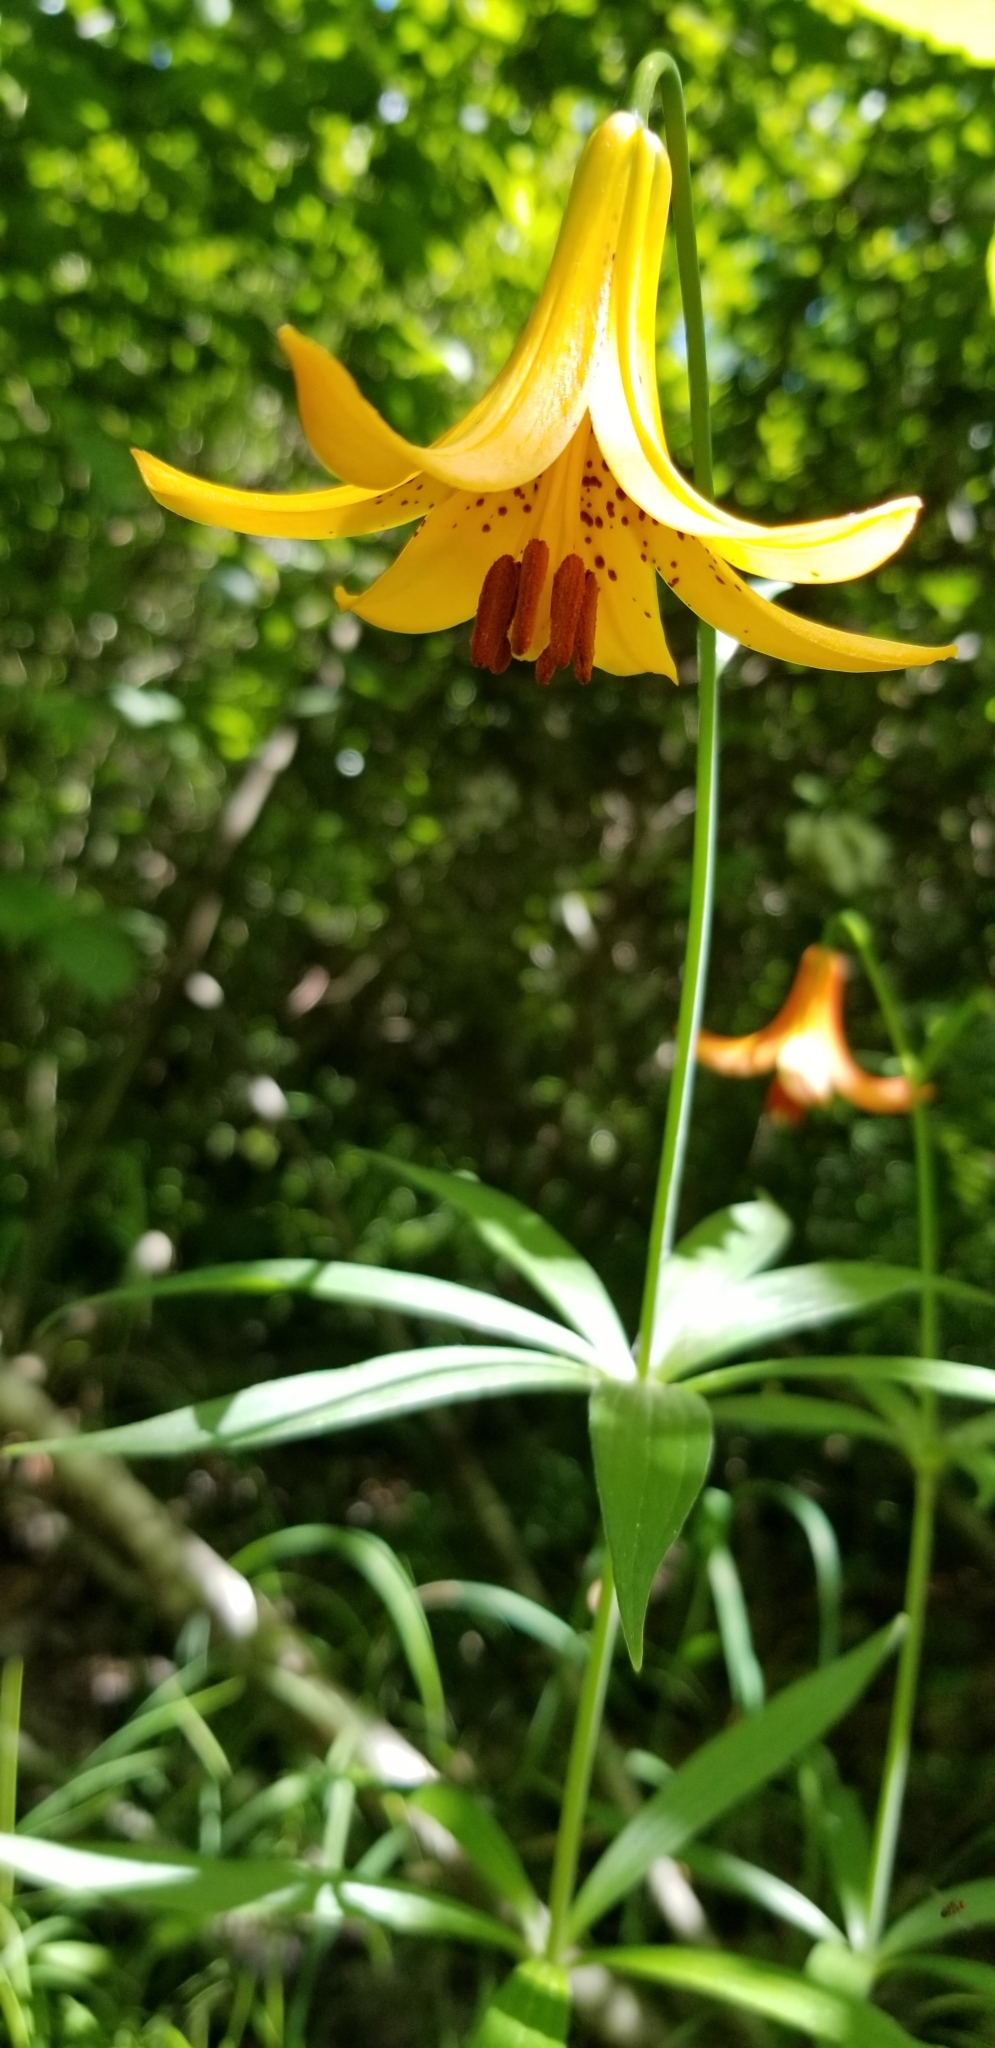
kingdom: Plantae
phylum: Tracheophyta
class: Liliopsida
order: Liliales
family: Liliaceae
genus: Lilium
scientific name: Lilium canadense
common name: Canada lily
